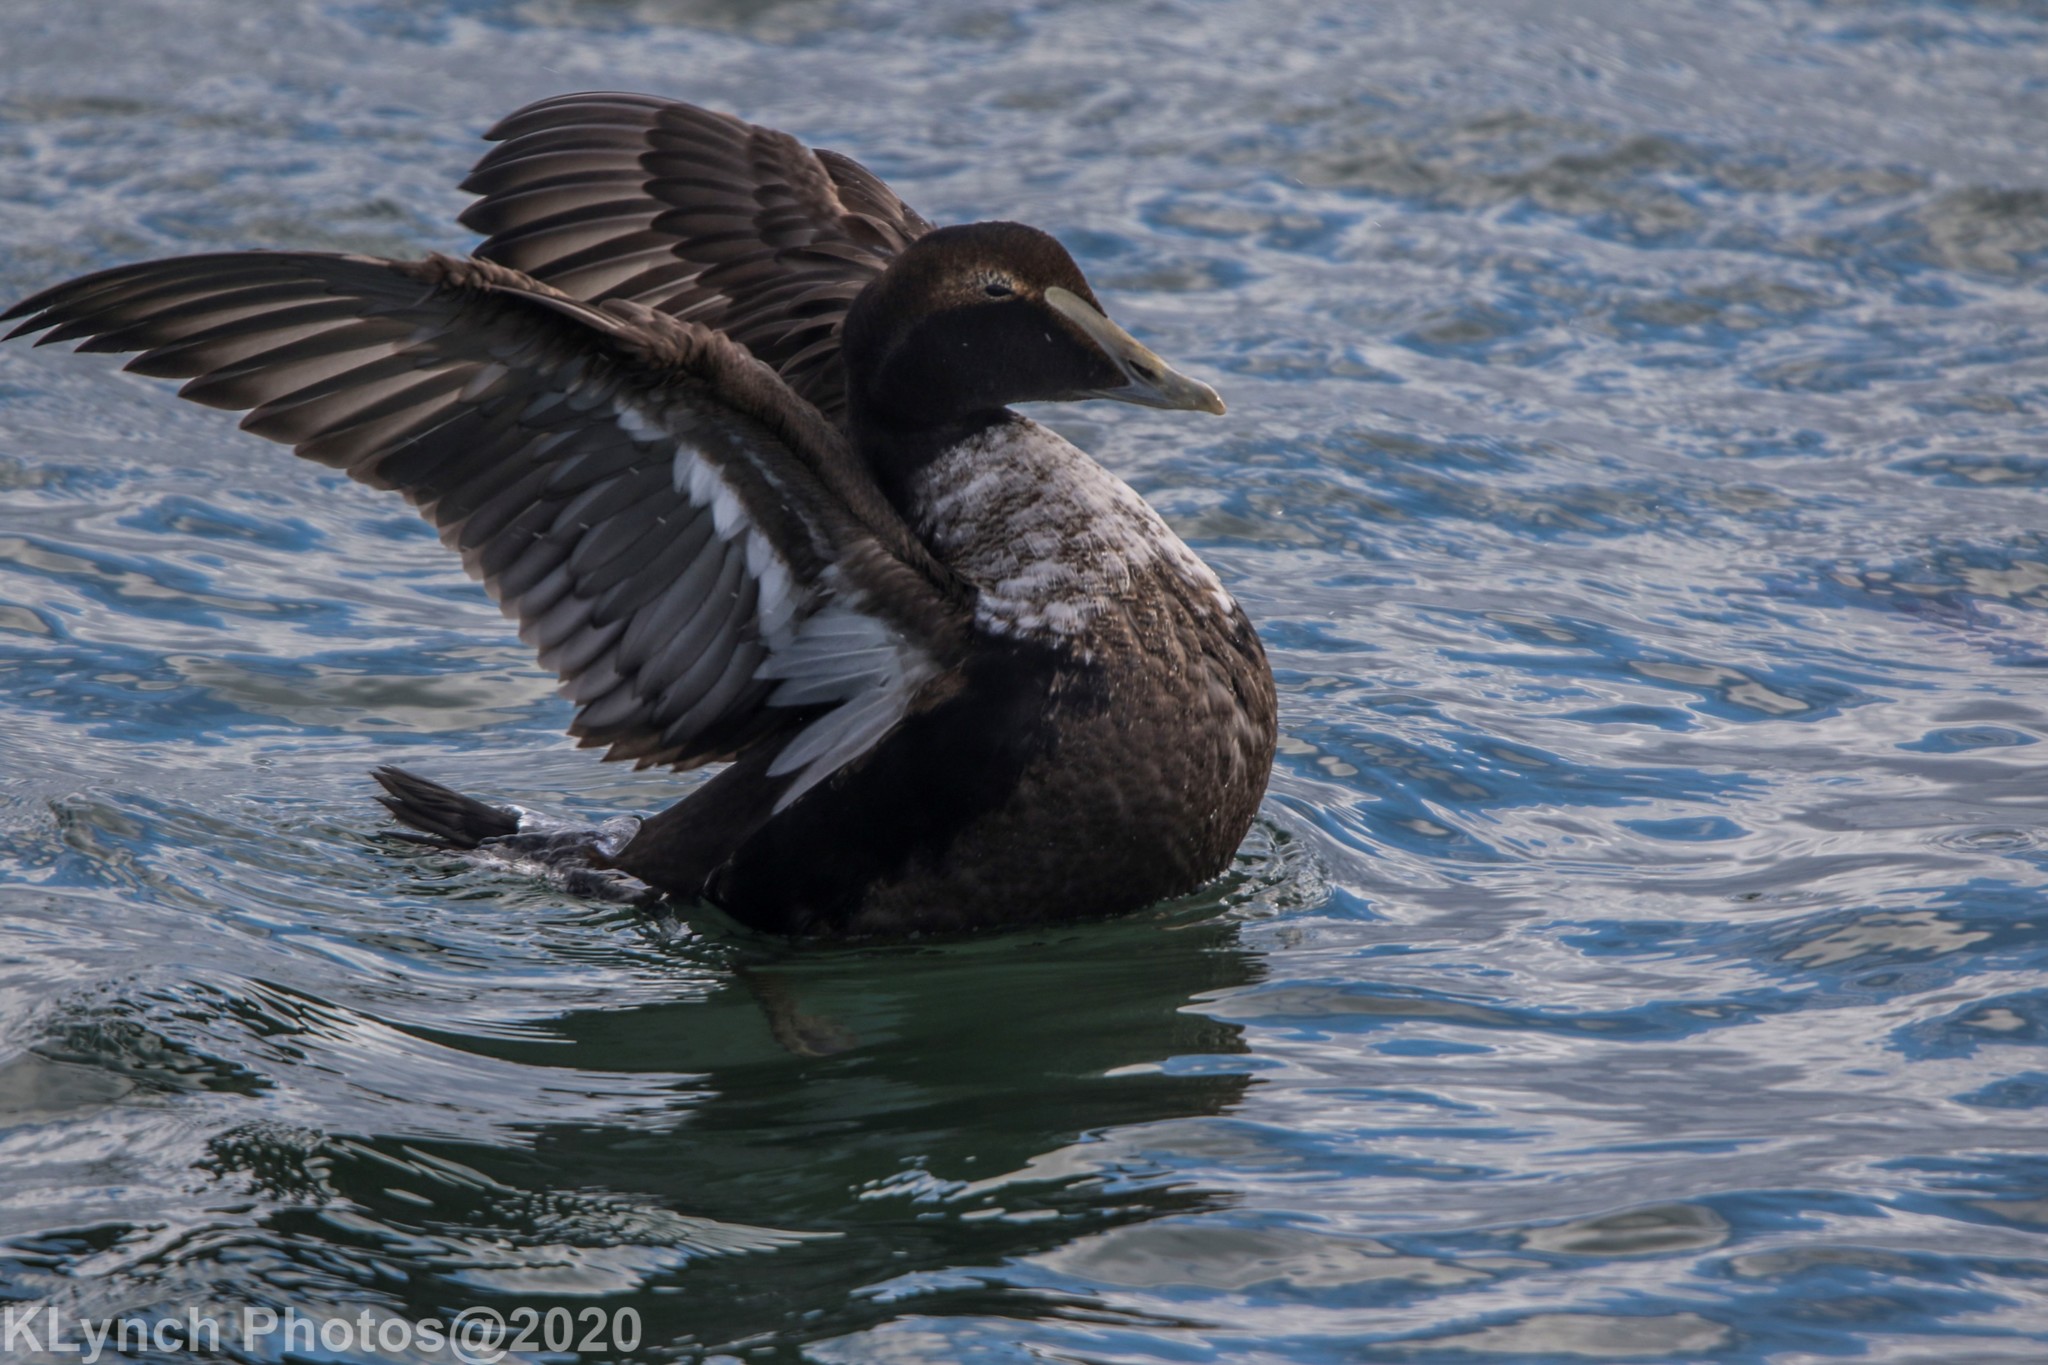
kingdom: Animalia
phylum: Chordata
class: Aves
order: Anseriformes
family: Anatidae
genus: Somateria
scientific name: Somateria mollissima
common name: Common eider
